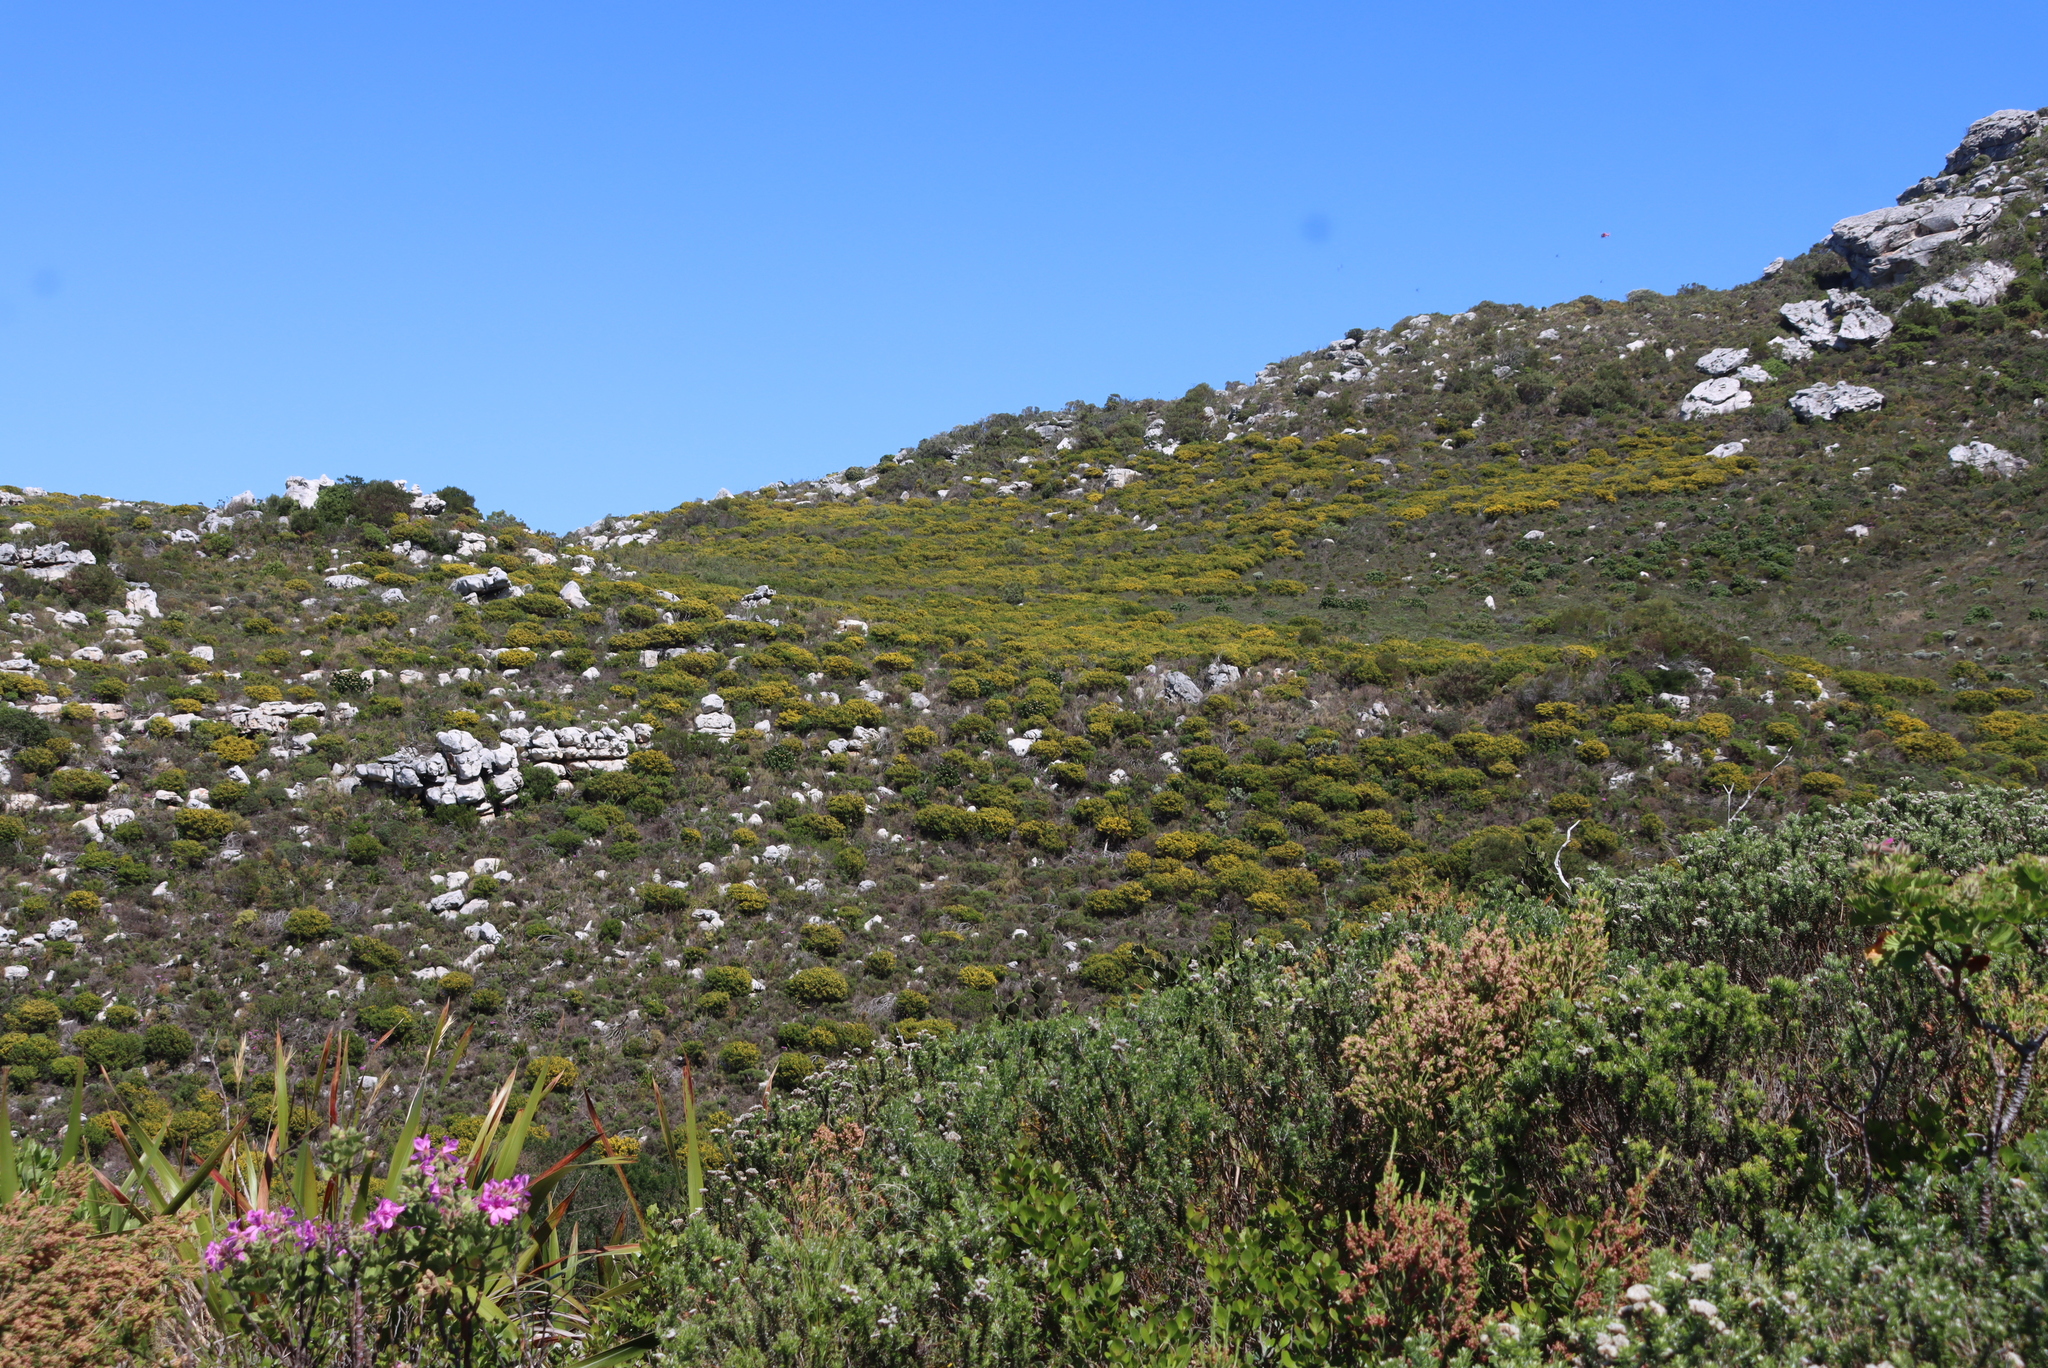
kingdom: Plantae
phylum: Tracheophyta
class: Magnoliopsida
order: Proteales
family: Proteaceae
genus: Leucadendron
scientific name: Leucadendron laureolum
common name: Golden sunshinebush
